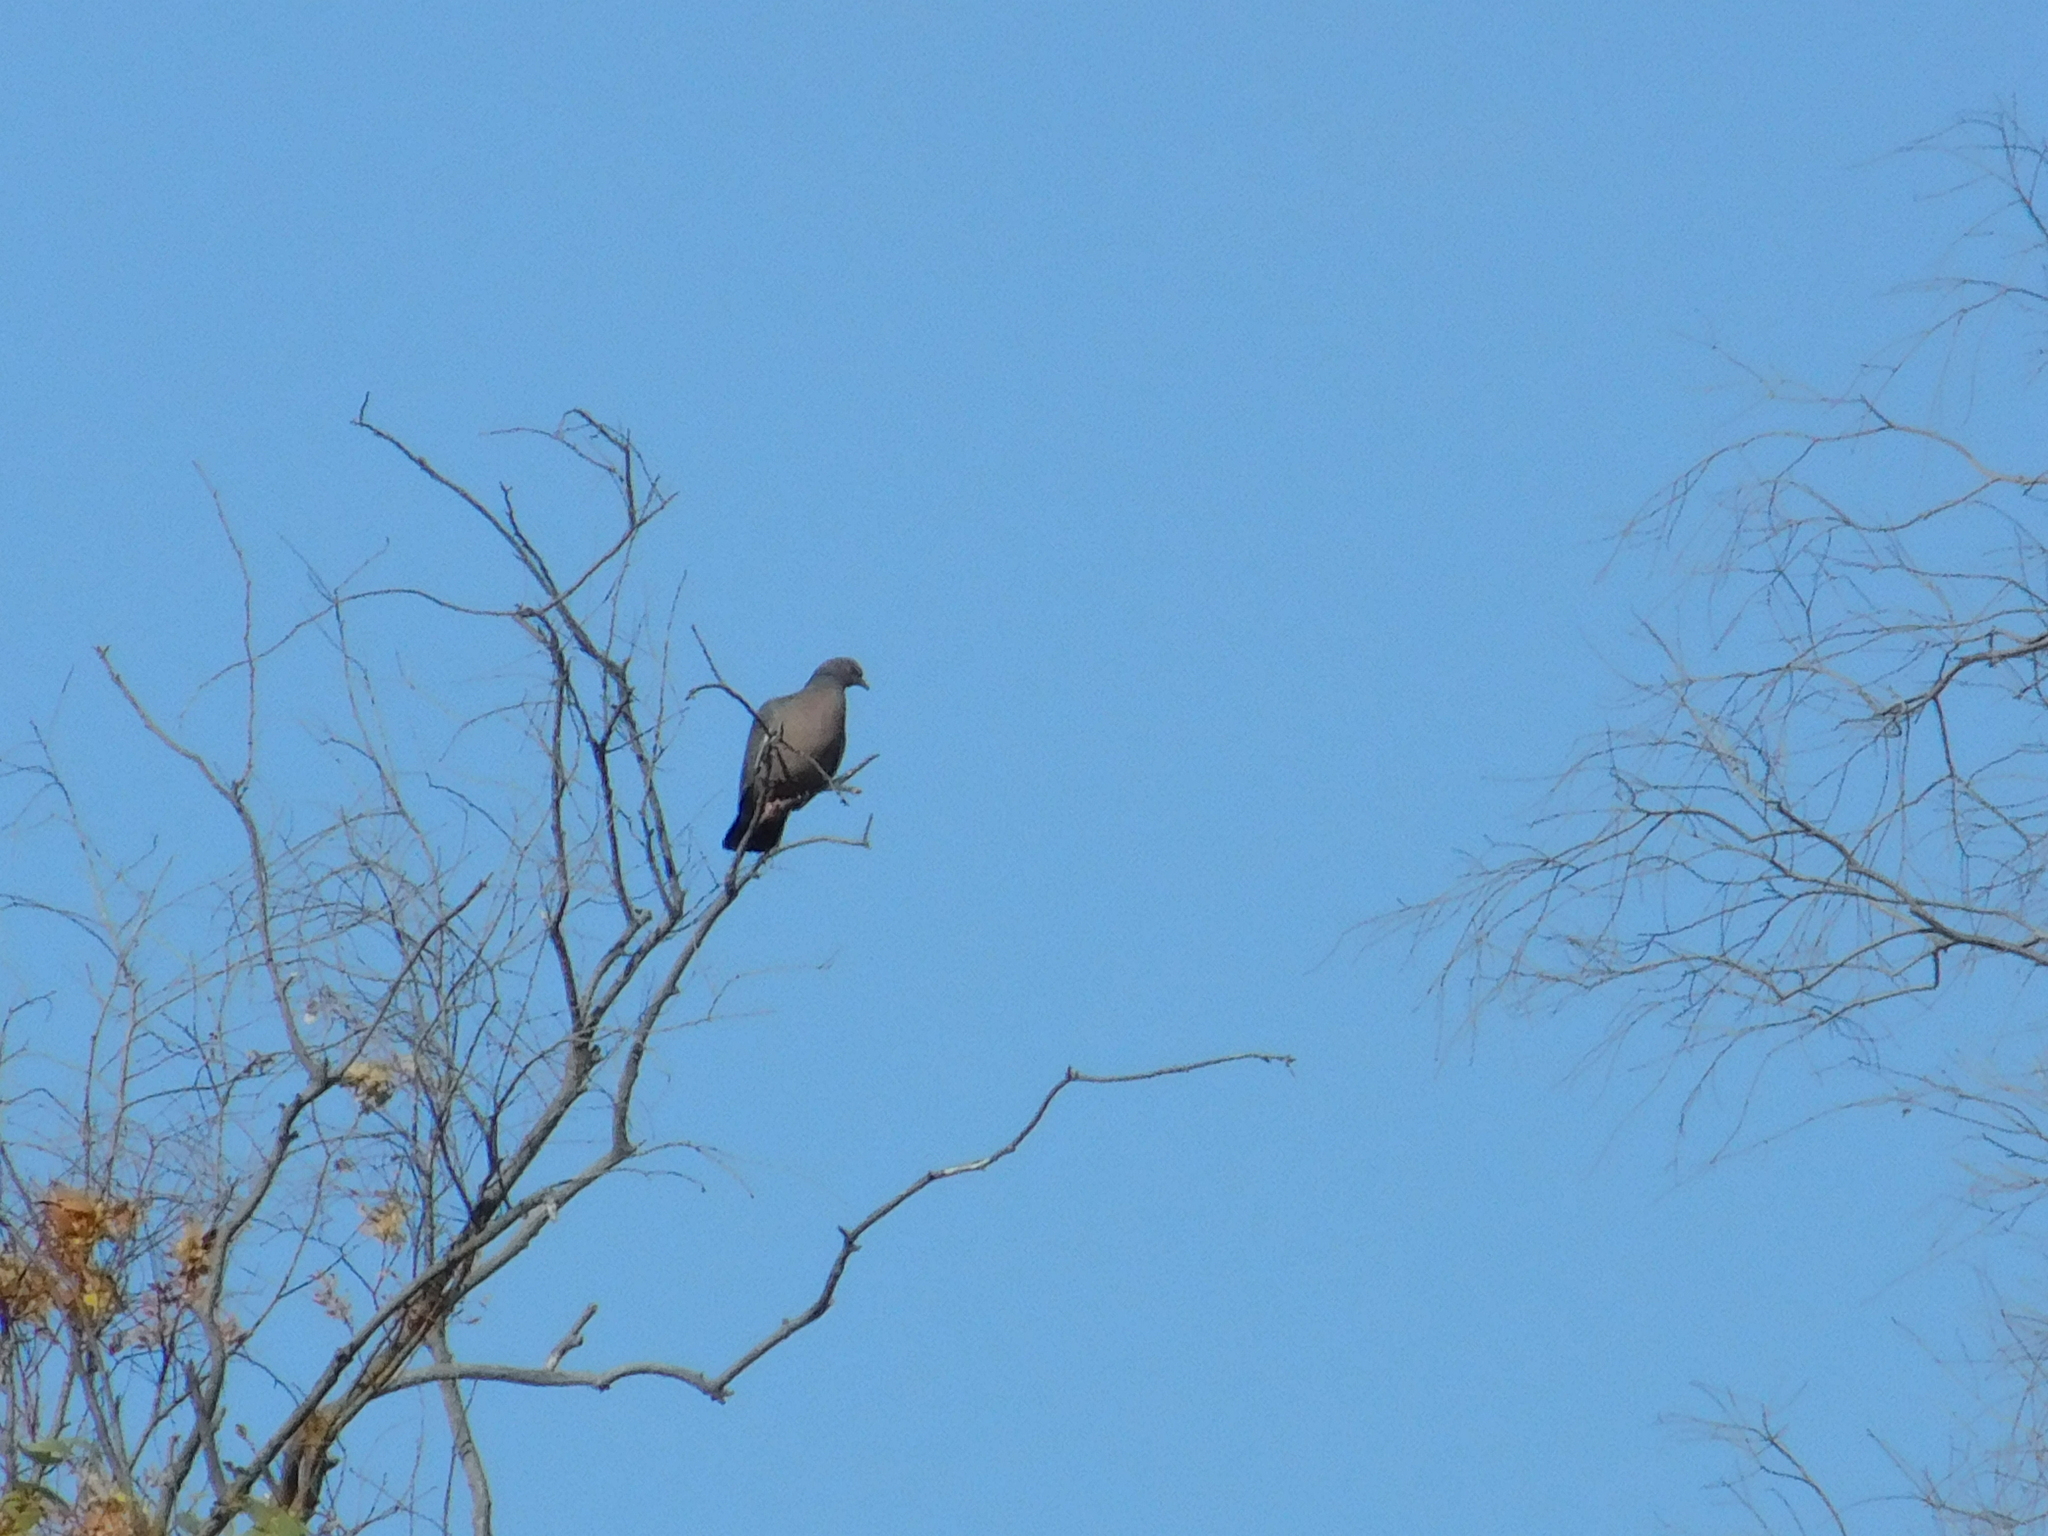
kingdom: Animalia
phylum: Chordata
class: Aves
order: Columbiformes
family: Columbidae
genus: Patagioenas
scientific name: Patagioenas picazuro
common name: Picazuro pigeon
